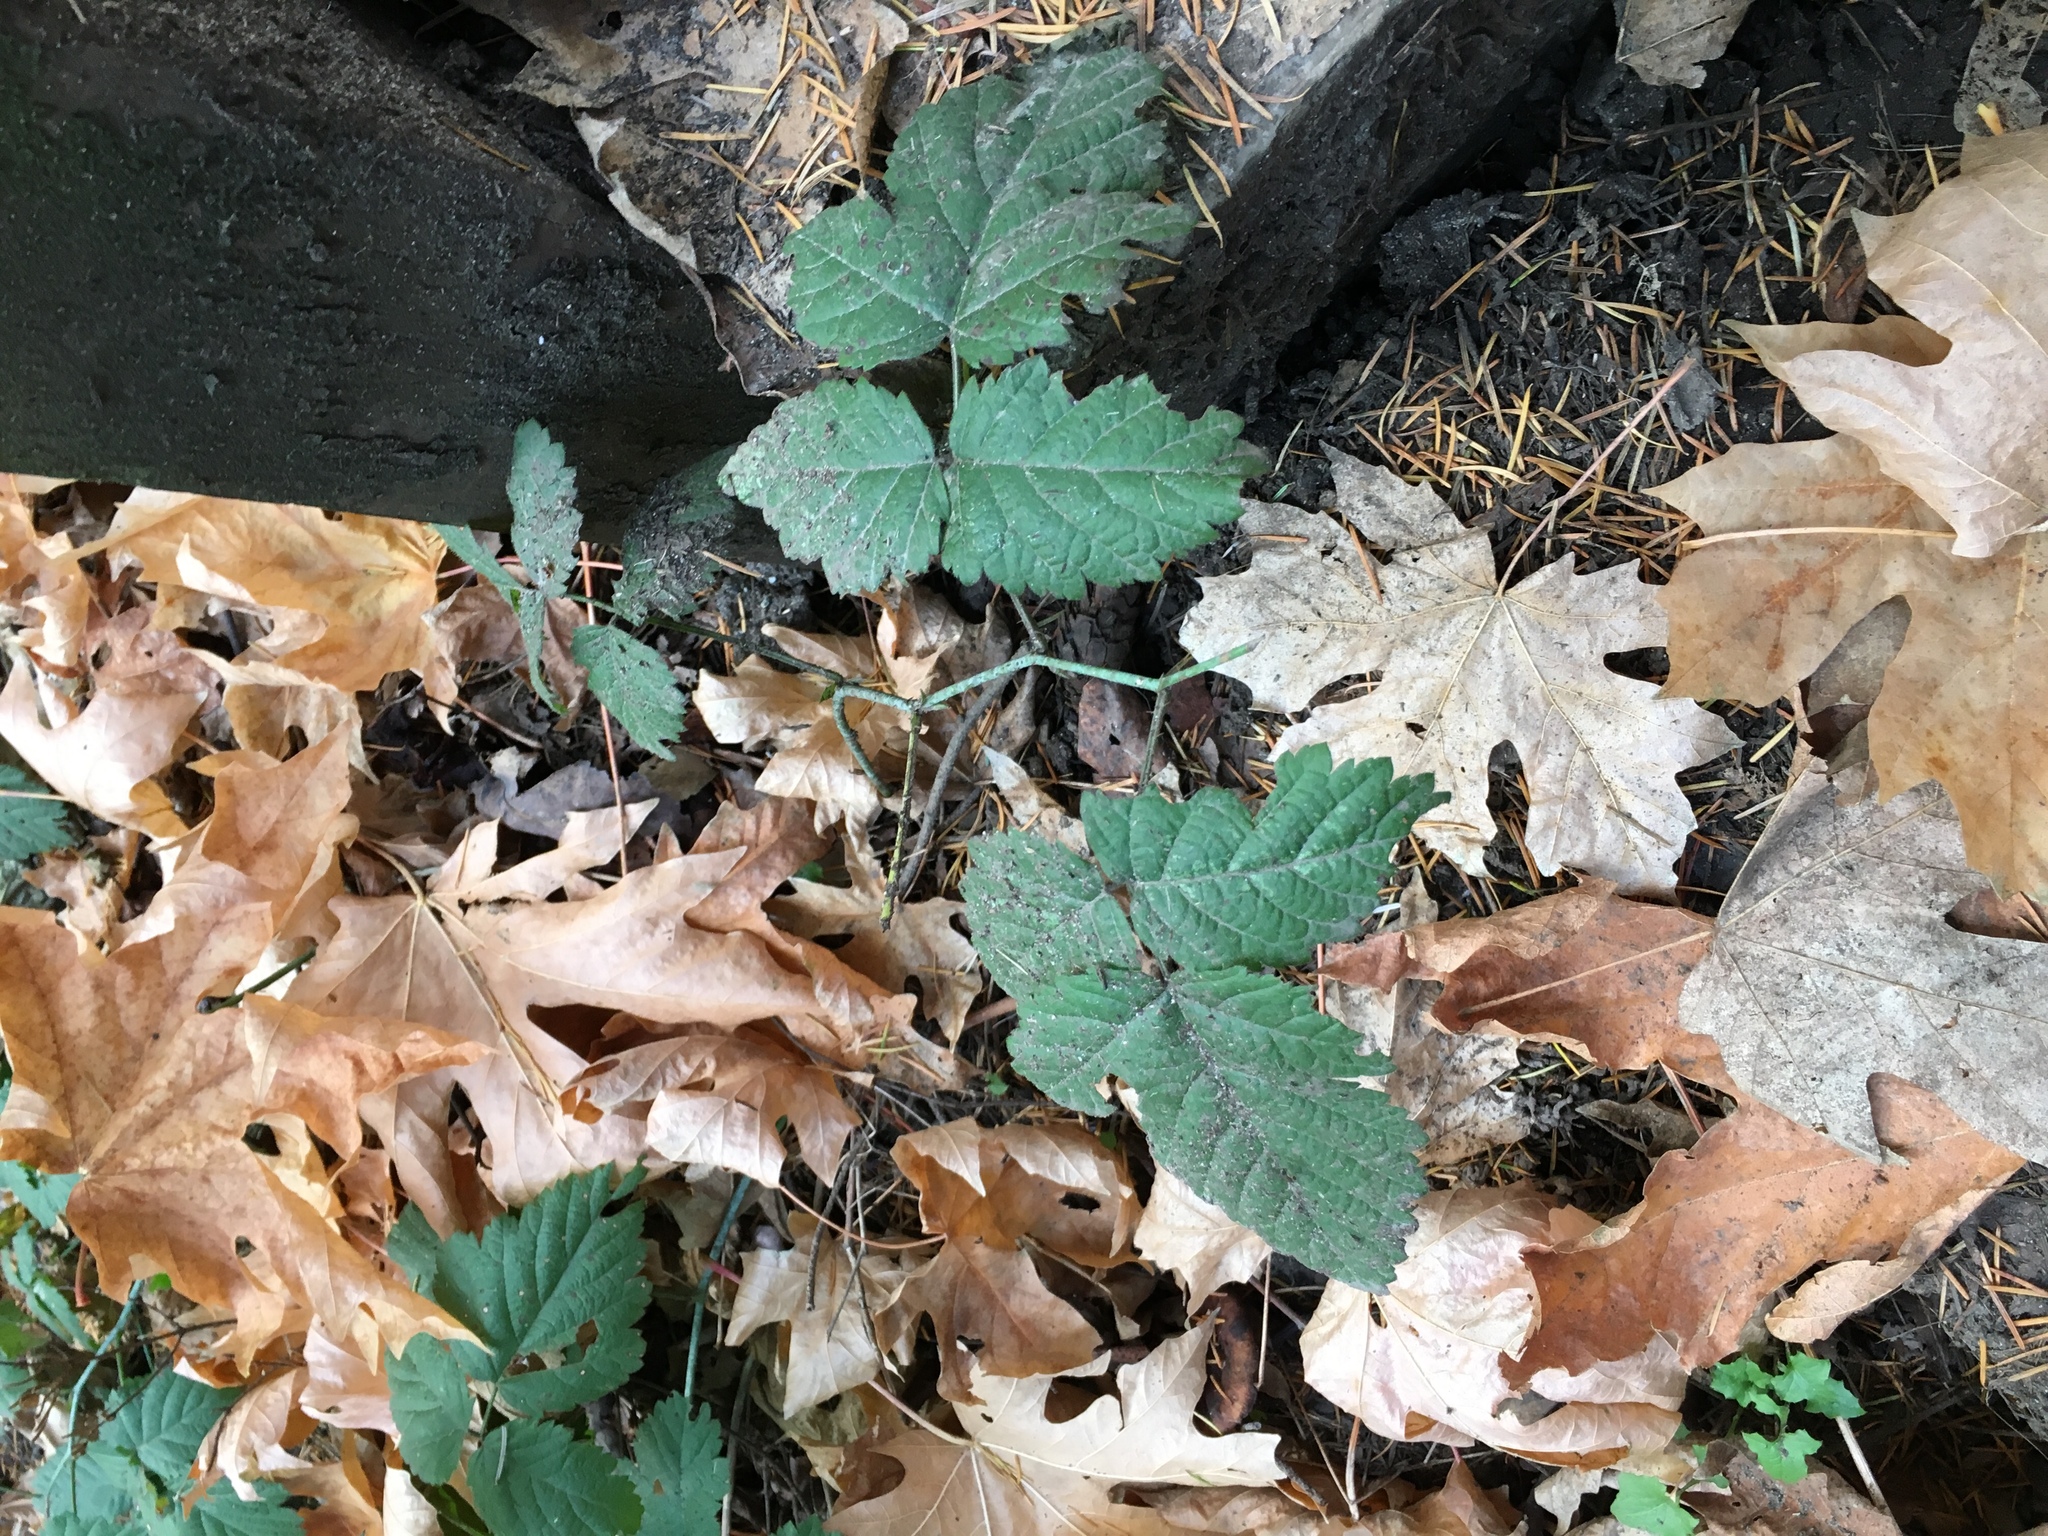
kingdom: Plantae
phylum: Tracheophyta
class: Magnoliopsida
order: Rosales
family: Rosaceae
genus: Rubus
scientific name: Rubus ursinus
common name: Pacific blackberry
